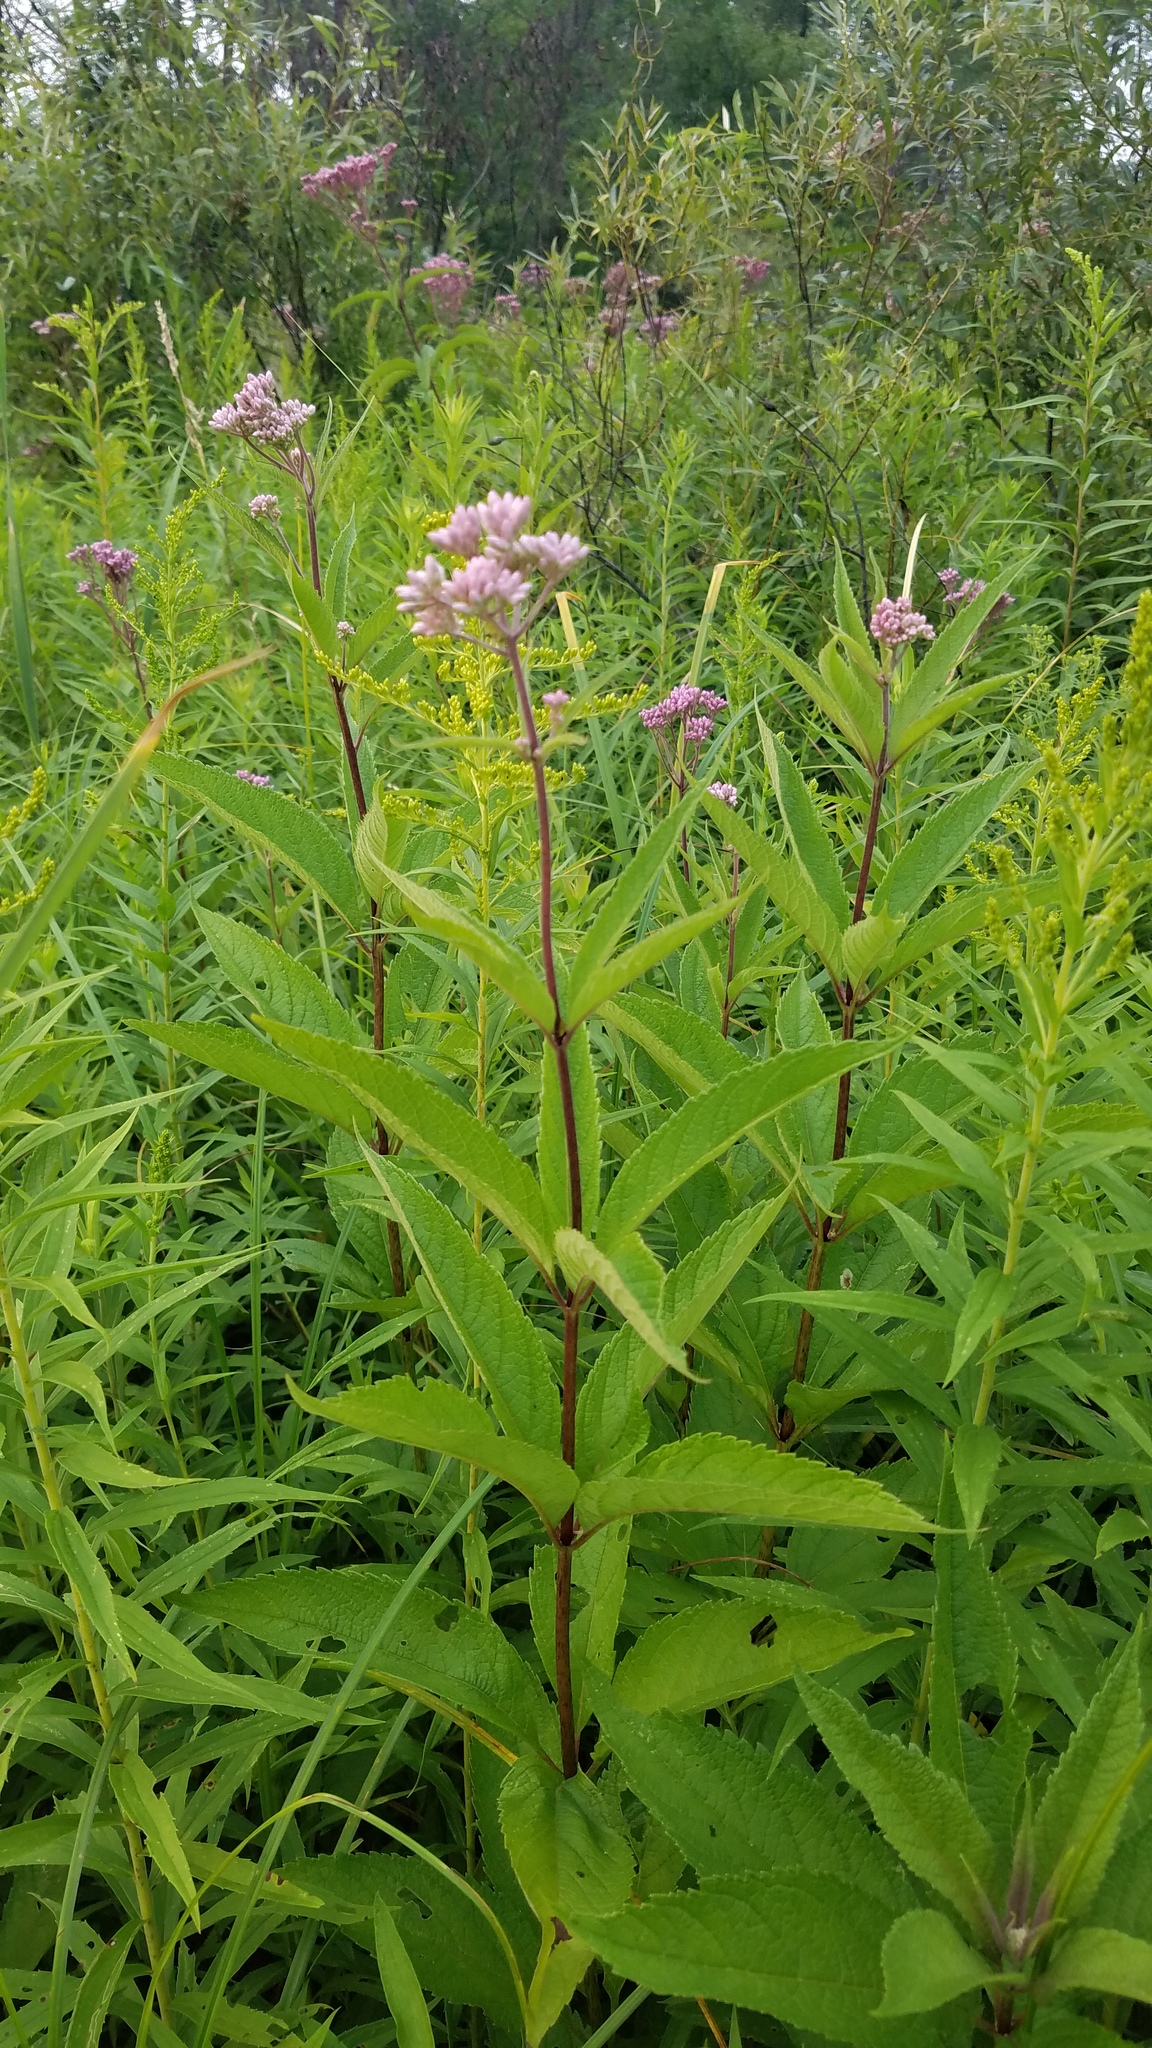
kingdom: Plantae
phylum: Tracheophyta
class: Magnoliopsida
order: Asterales
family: Asteraceae
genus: Eutrochium
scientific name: Eutrochium maculatum
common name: Spotted joe pye weed
